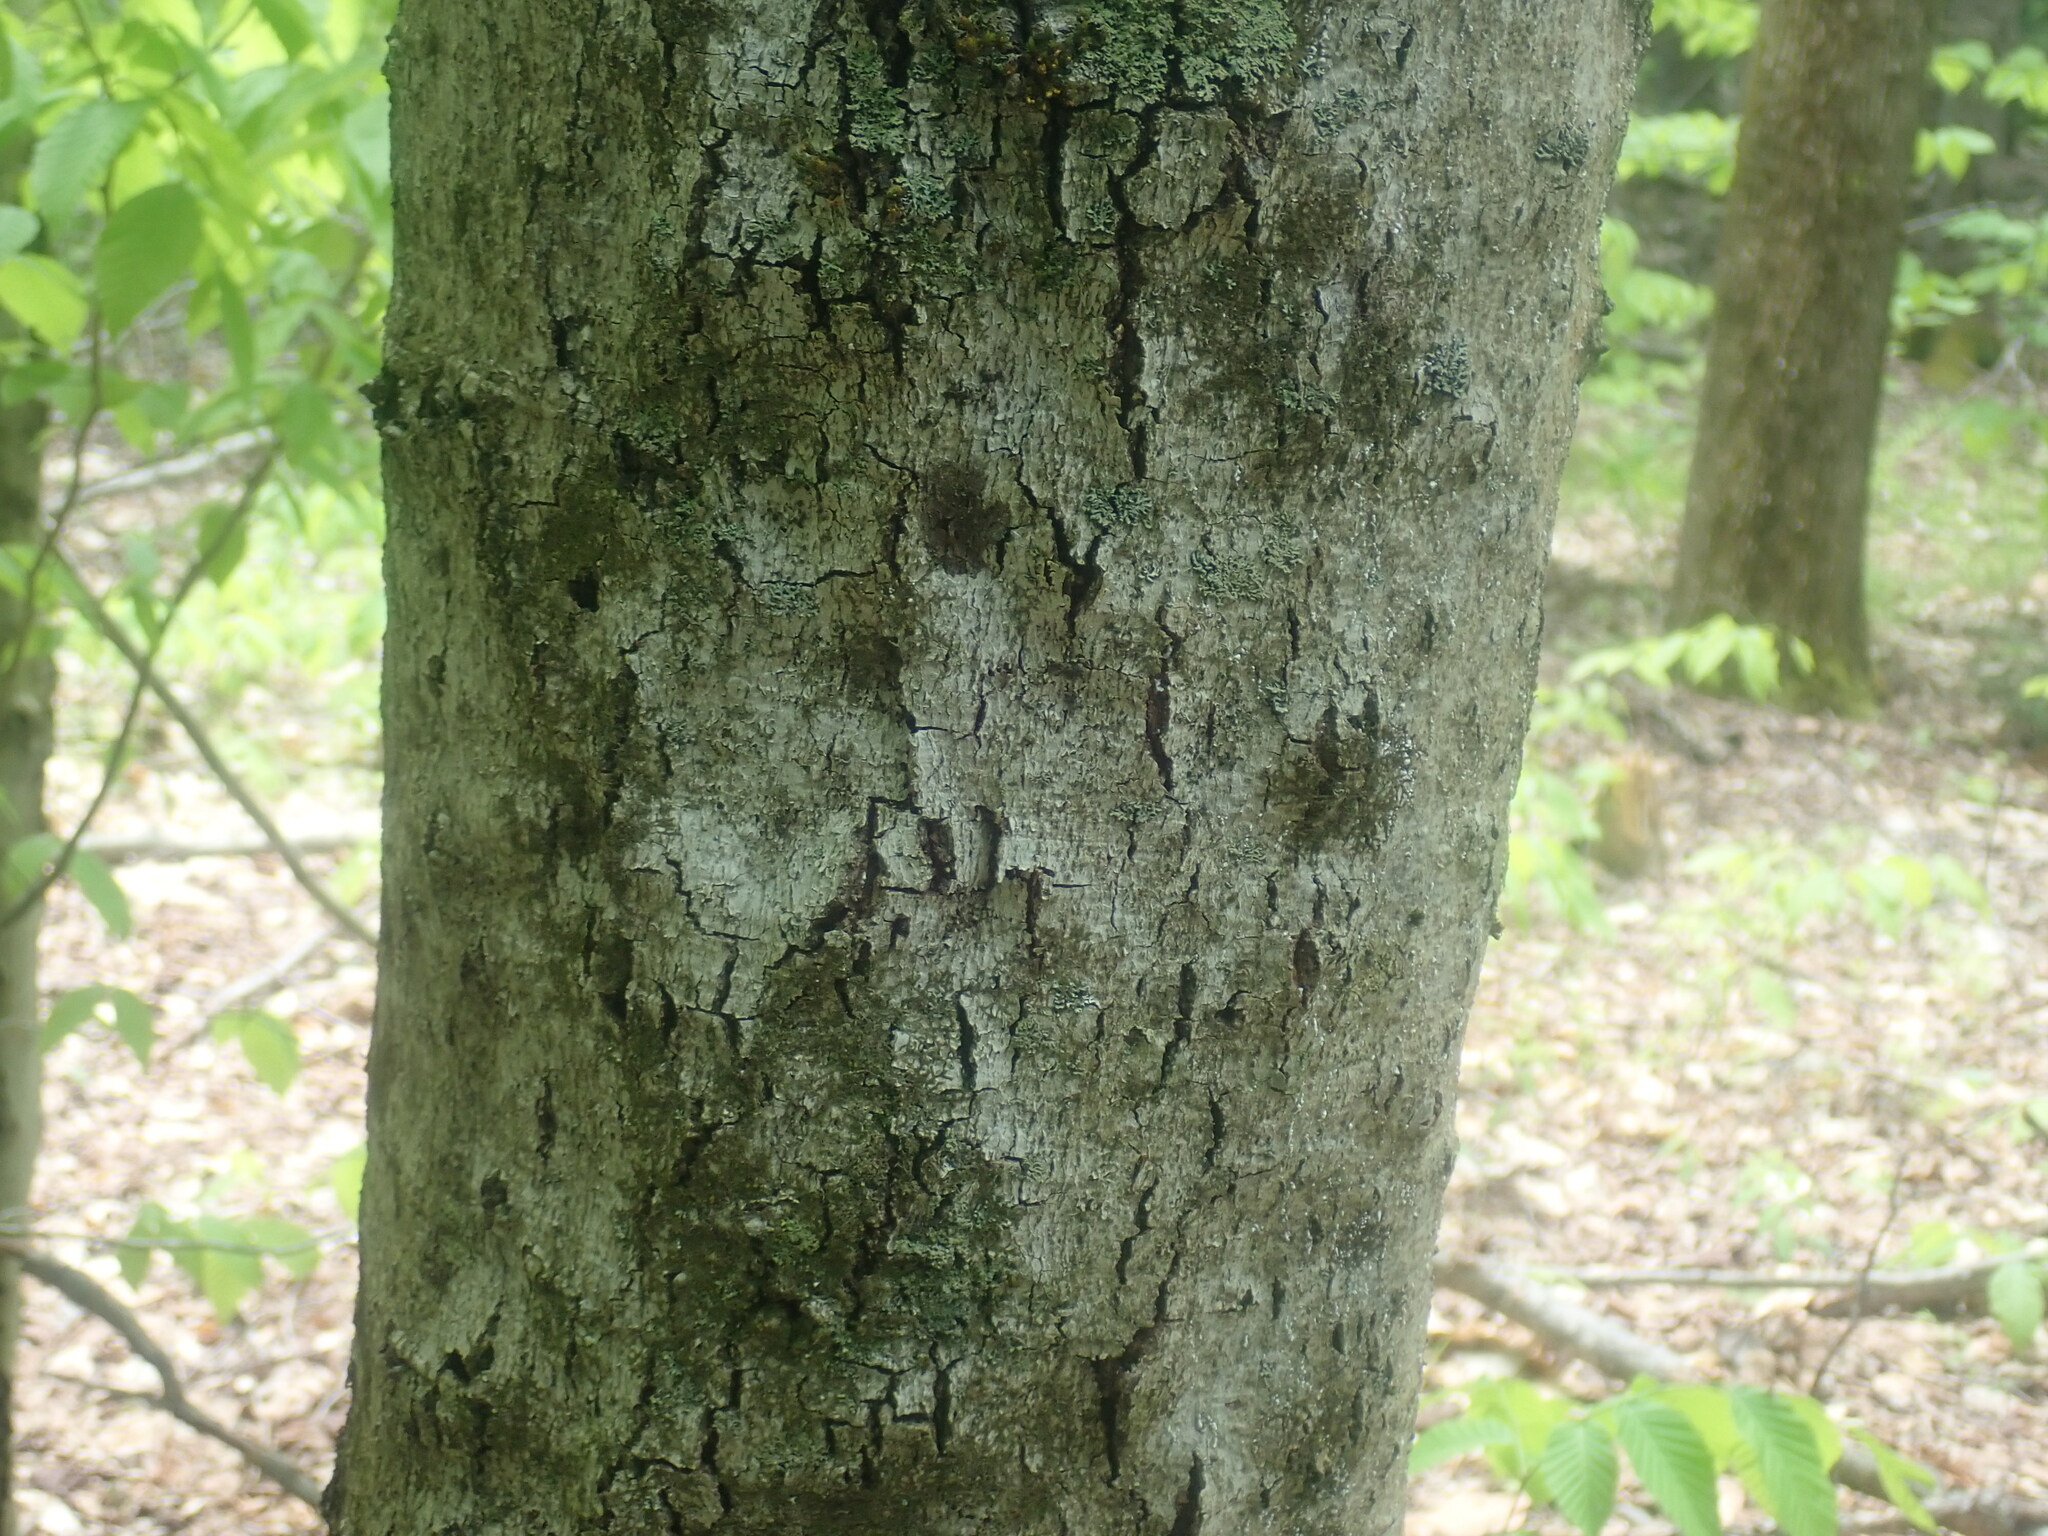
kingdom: Fungi
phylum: Ascomycota
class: Sordariomycetes
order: Hypocreales
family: Nectriaceae
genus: Neonectria
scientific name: Neonectria faginata
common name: Beech bark canker
